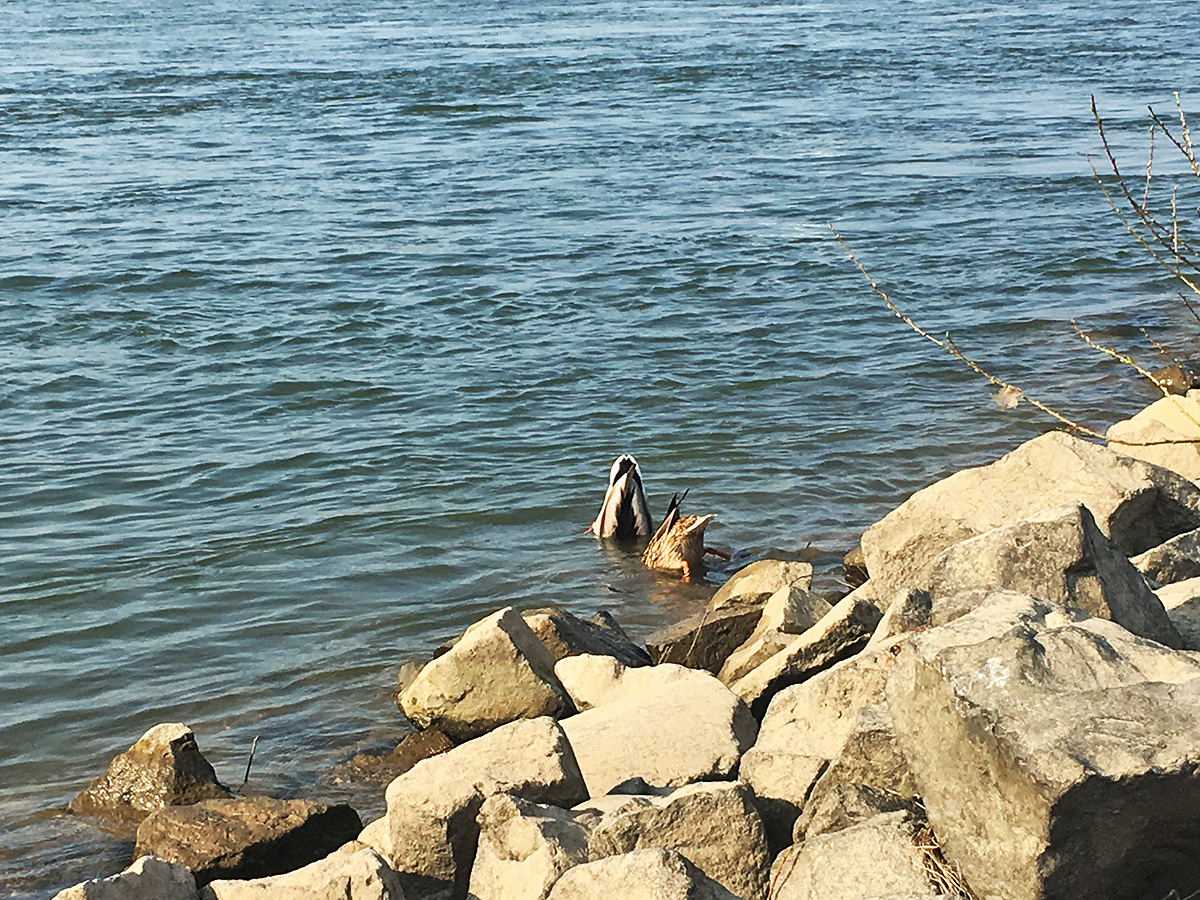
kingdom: Animalia
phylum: Chordata
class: Aves
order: Anseriformes
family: Anatidae
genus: Anas
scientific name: Anas platyrhynchos
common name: Mallard
